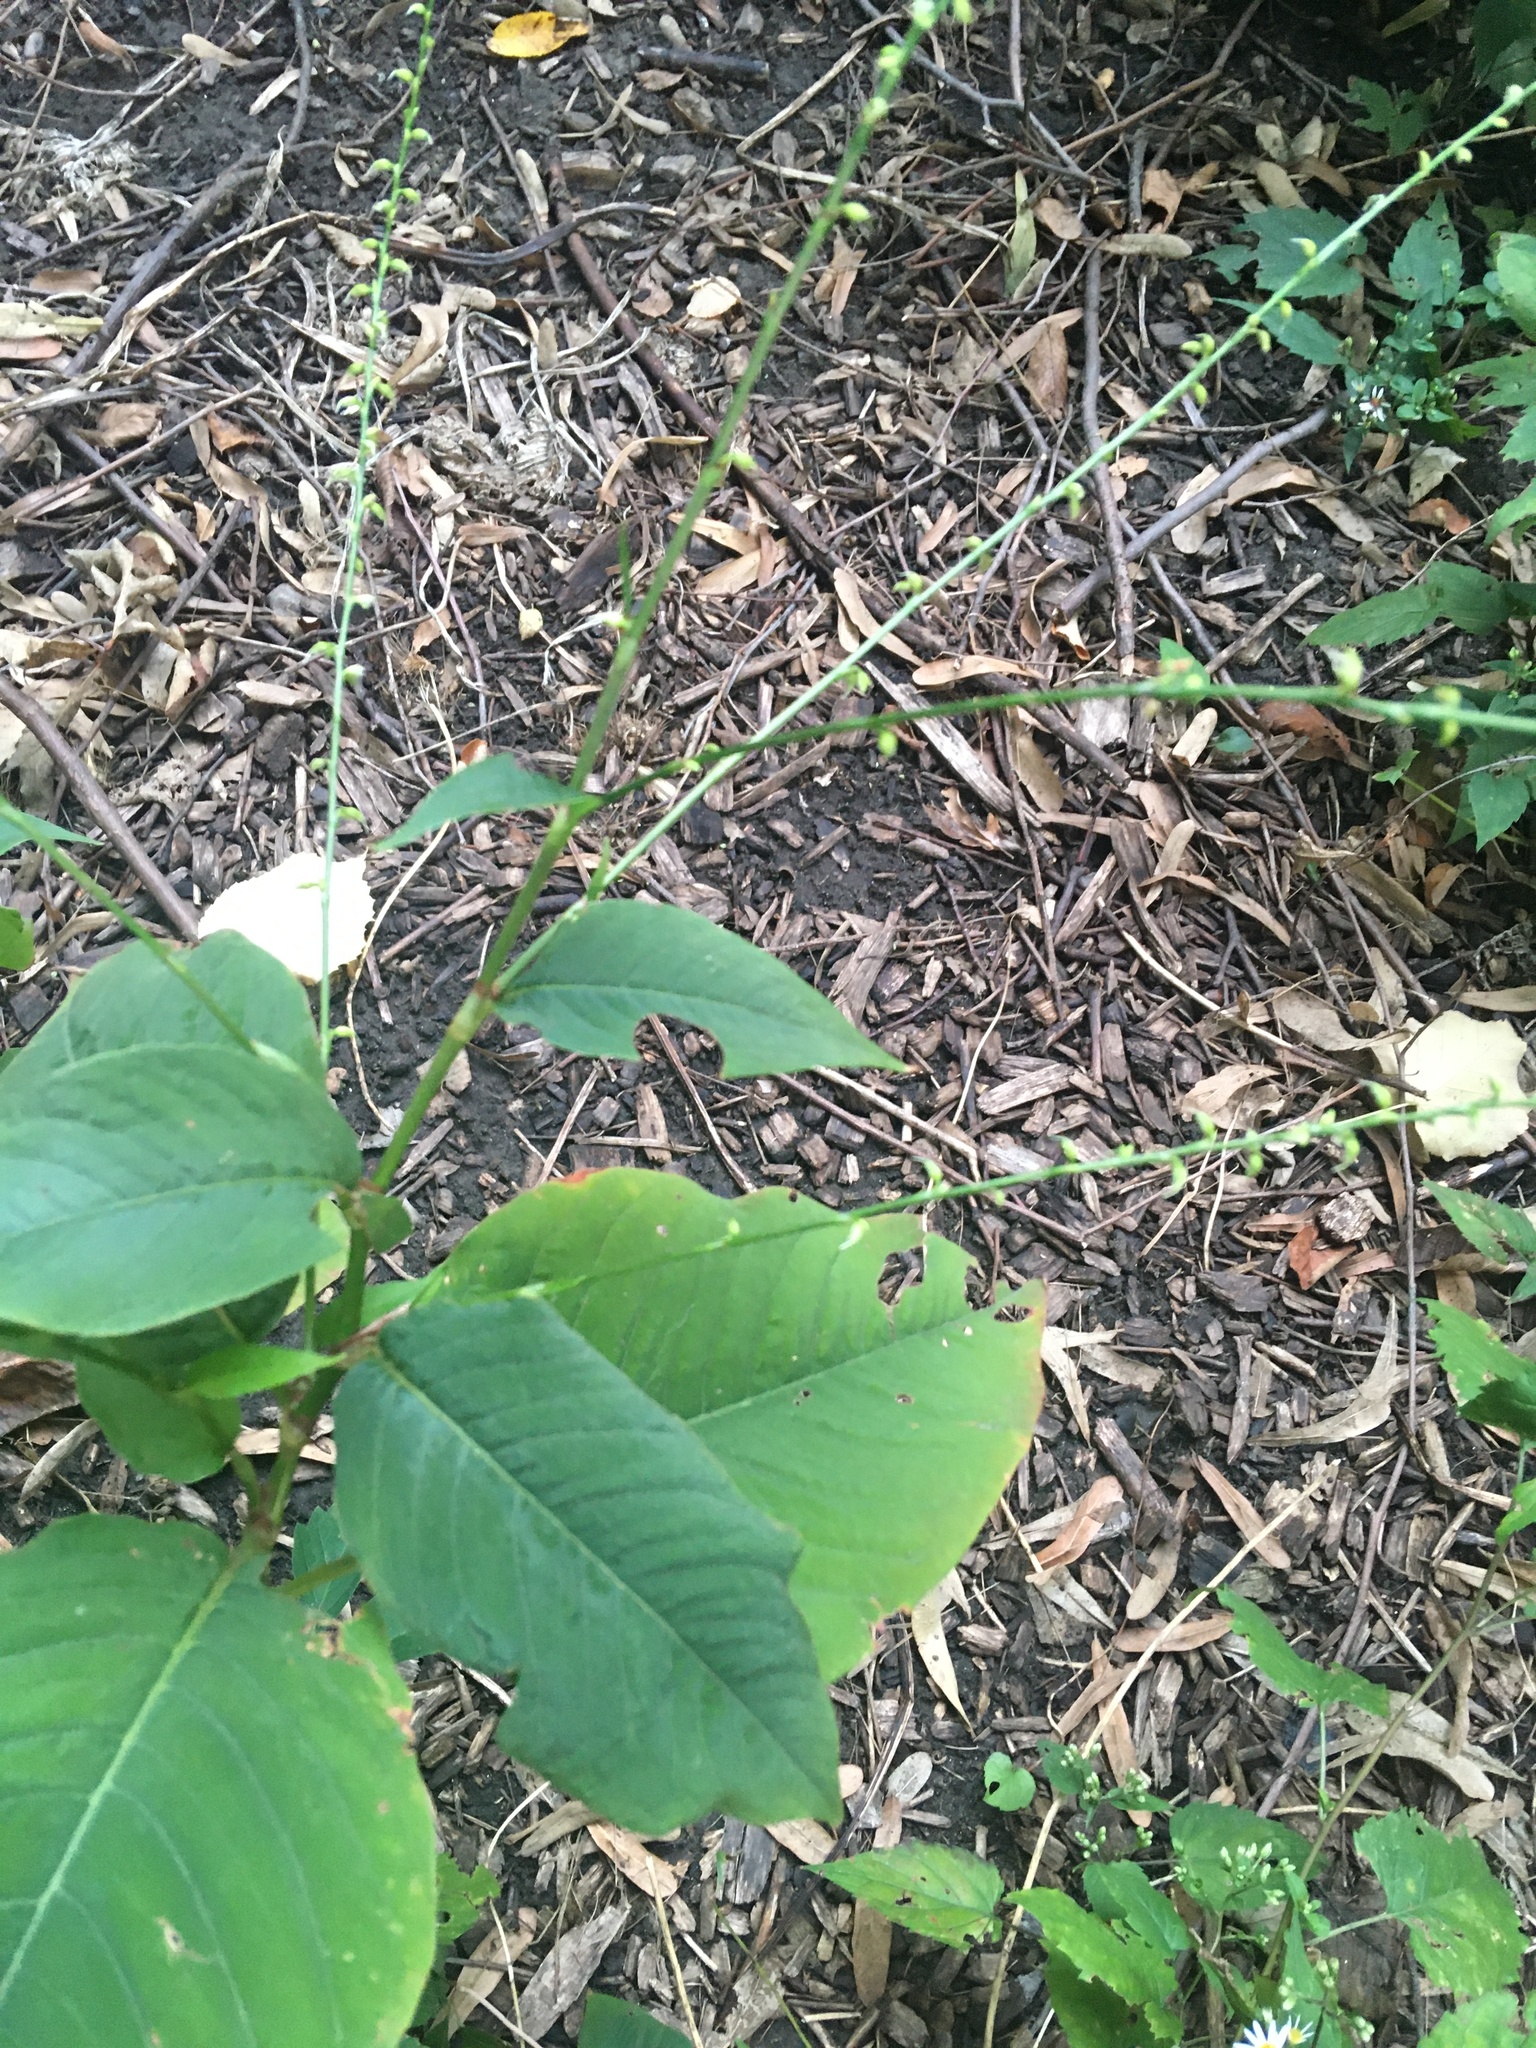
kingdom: Plantae
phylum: Tracheophyta
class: Magnoliopsida
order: Caryophyllales
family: Polygonaceae
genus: Persicaria
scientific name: Persicaria virginiana
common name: Jumpseed
